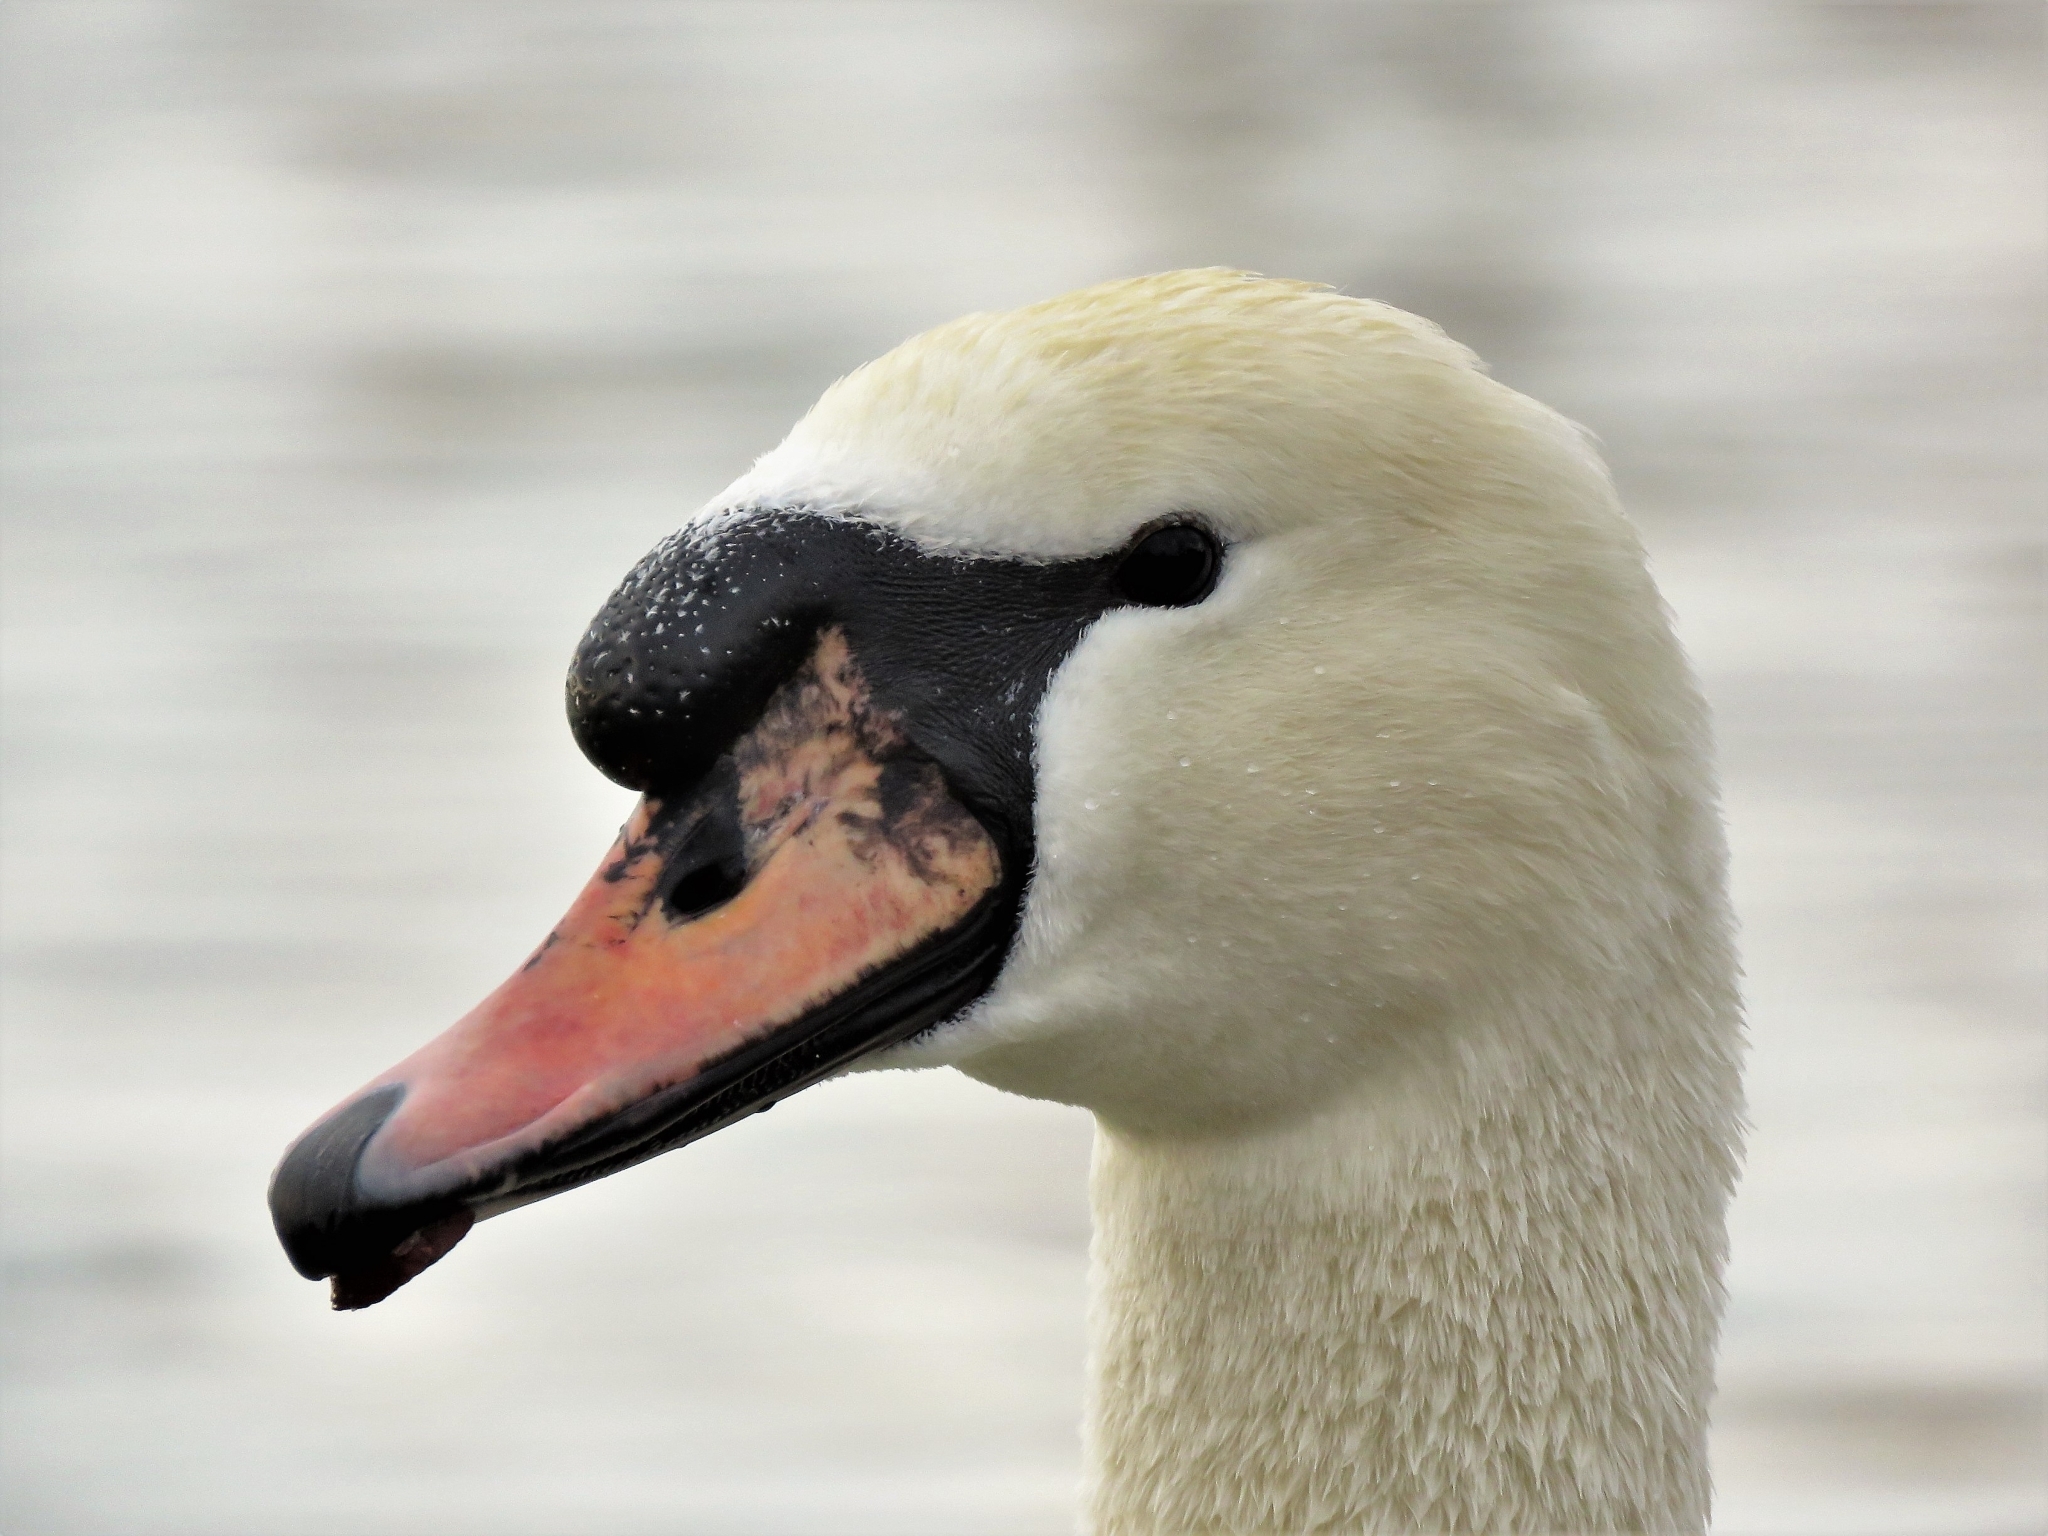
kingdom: Animalia
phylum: Chordata
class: Aves
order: Anseriformes
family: Anatidae
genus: Cygnus
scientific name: Cygnus olor
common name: Mute swan
